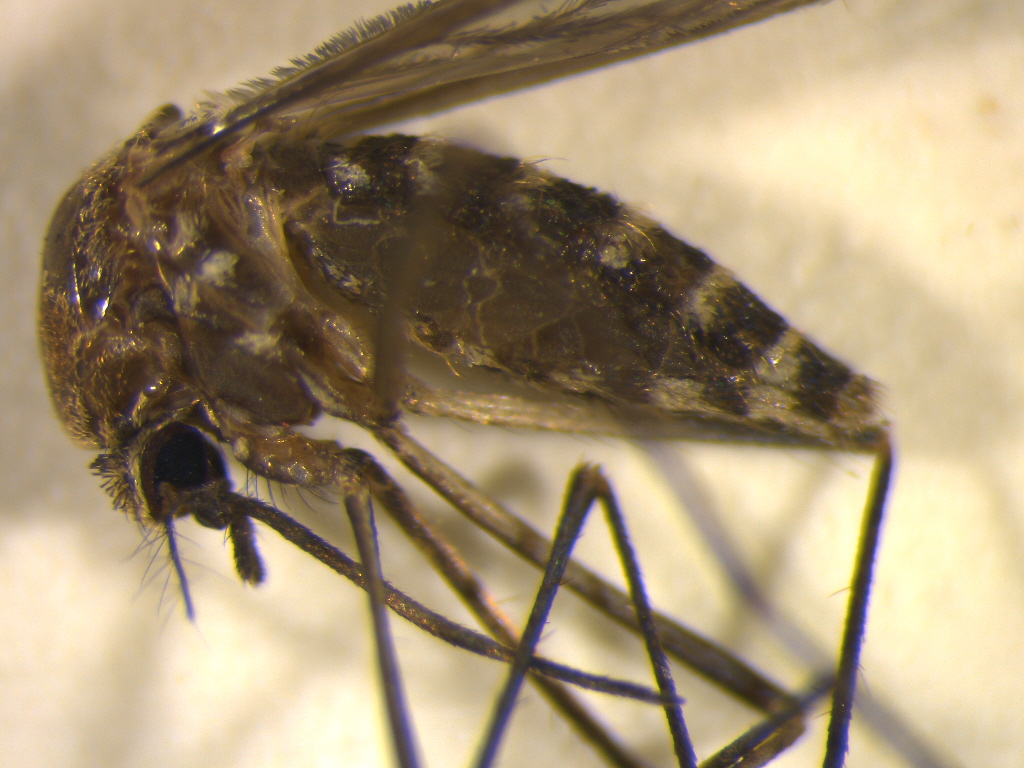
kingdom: Animalia
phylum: Arthropoda
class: Insecta
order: Diptera
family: Culicidae
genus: Culex
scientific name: Culex pervigilans
